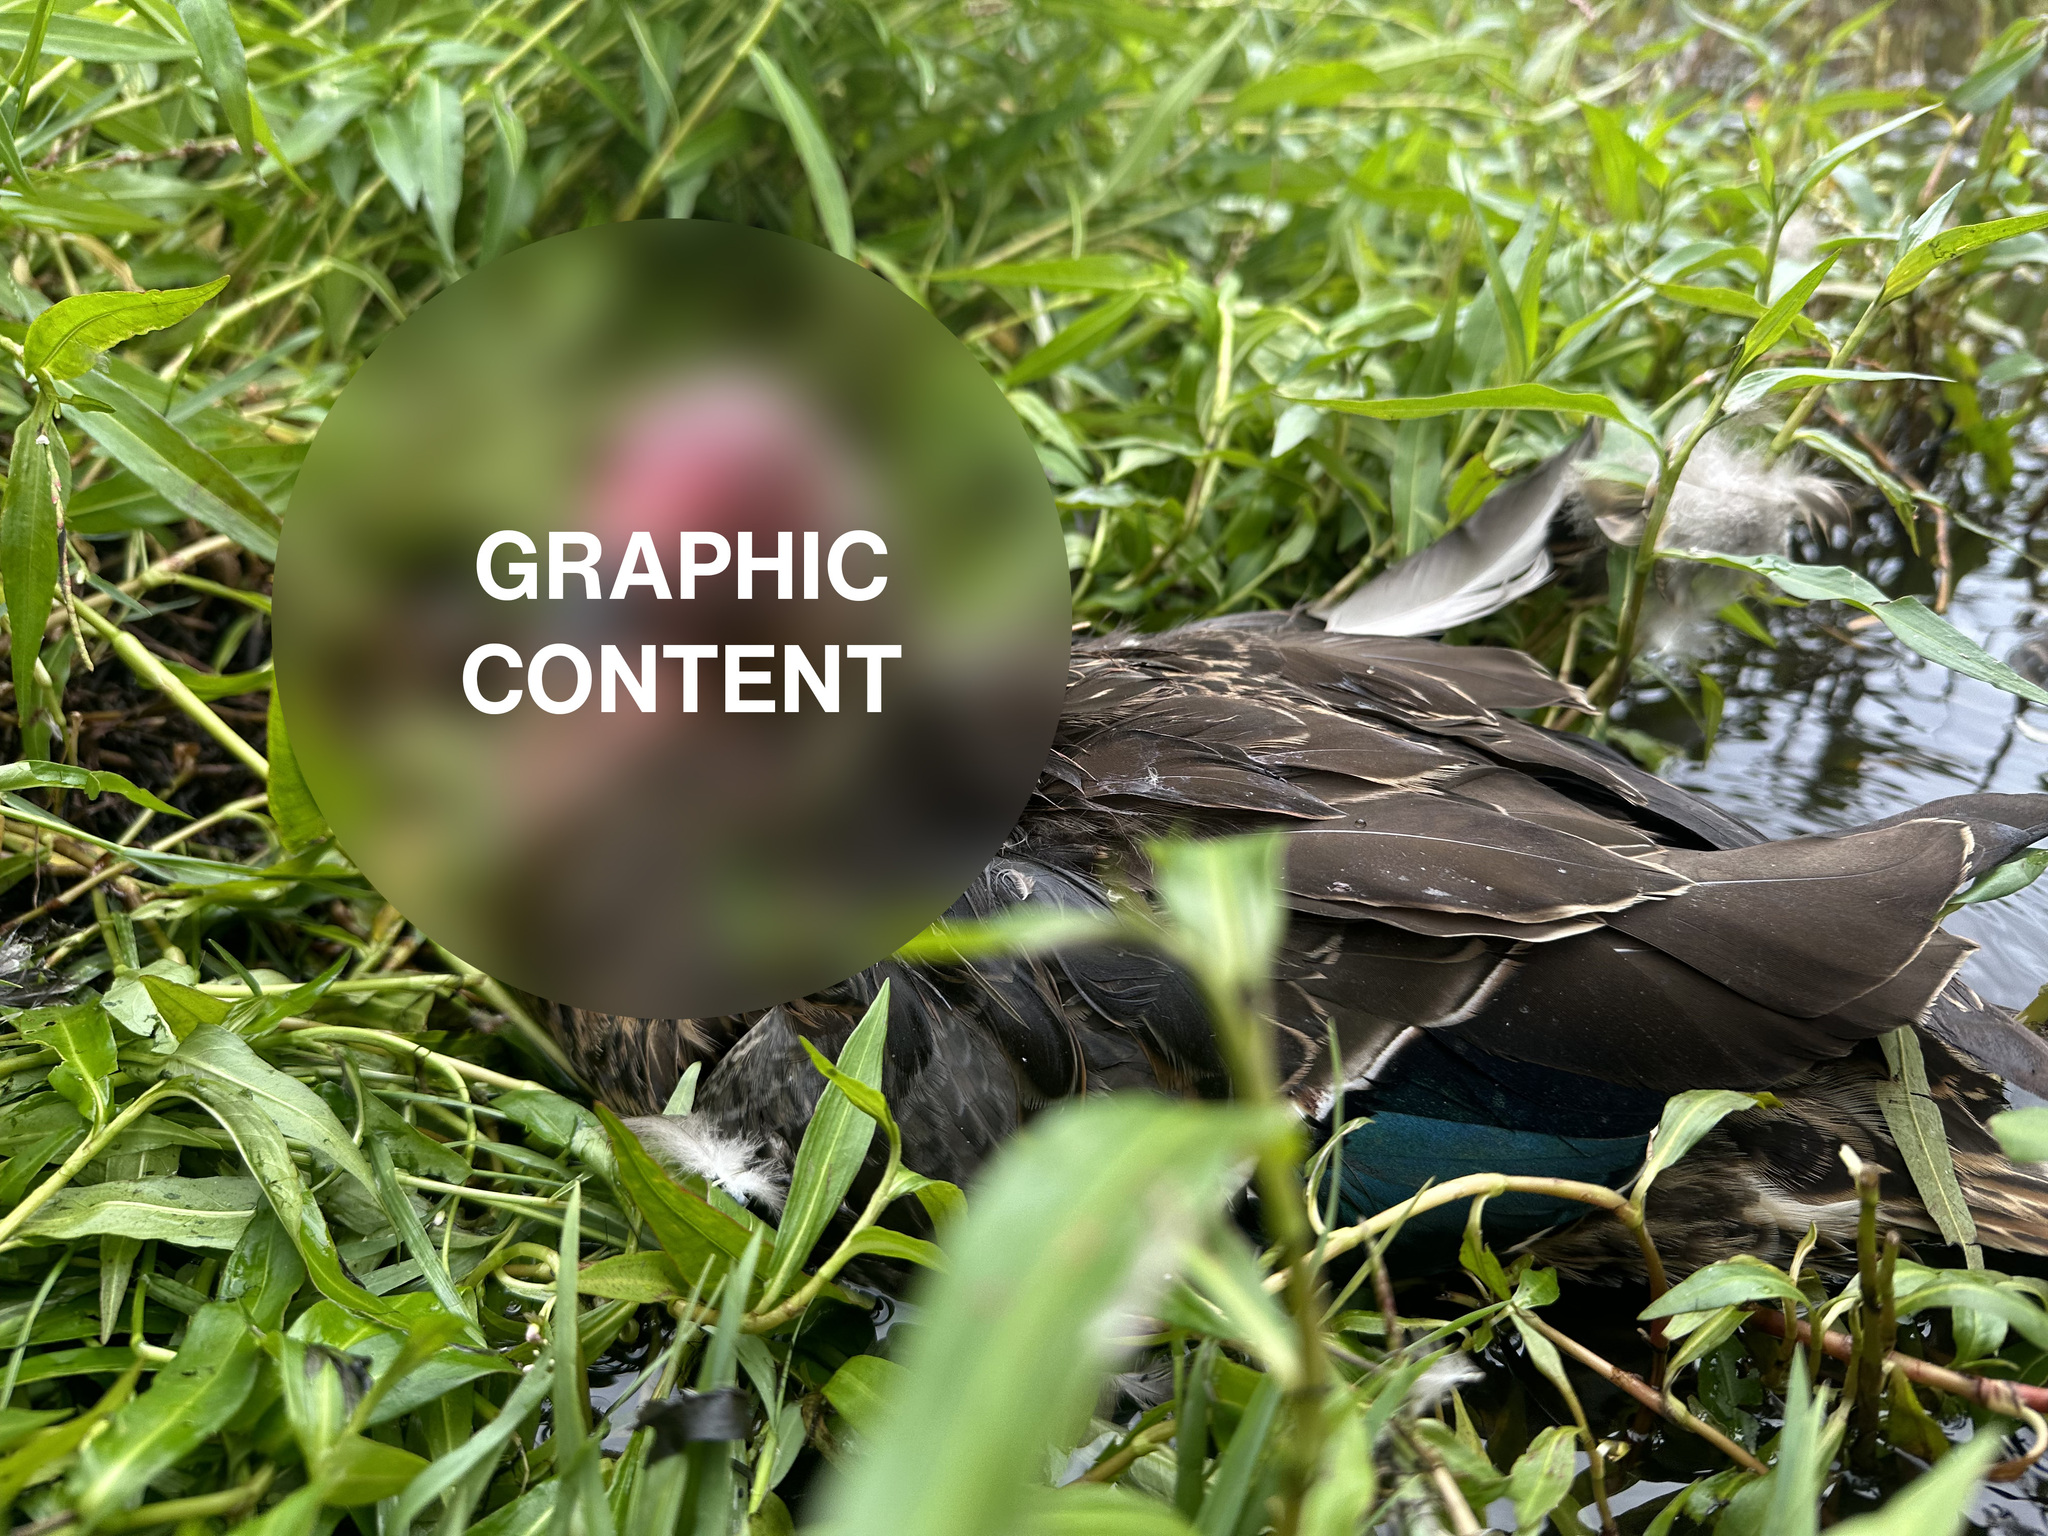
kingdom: Animalia
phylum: Chordata
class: Aves
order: Anseriformes
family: Anatidae
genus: Anas
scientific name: Anas
